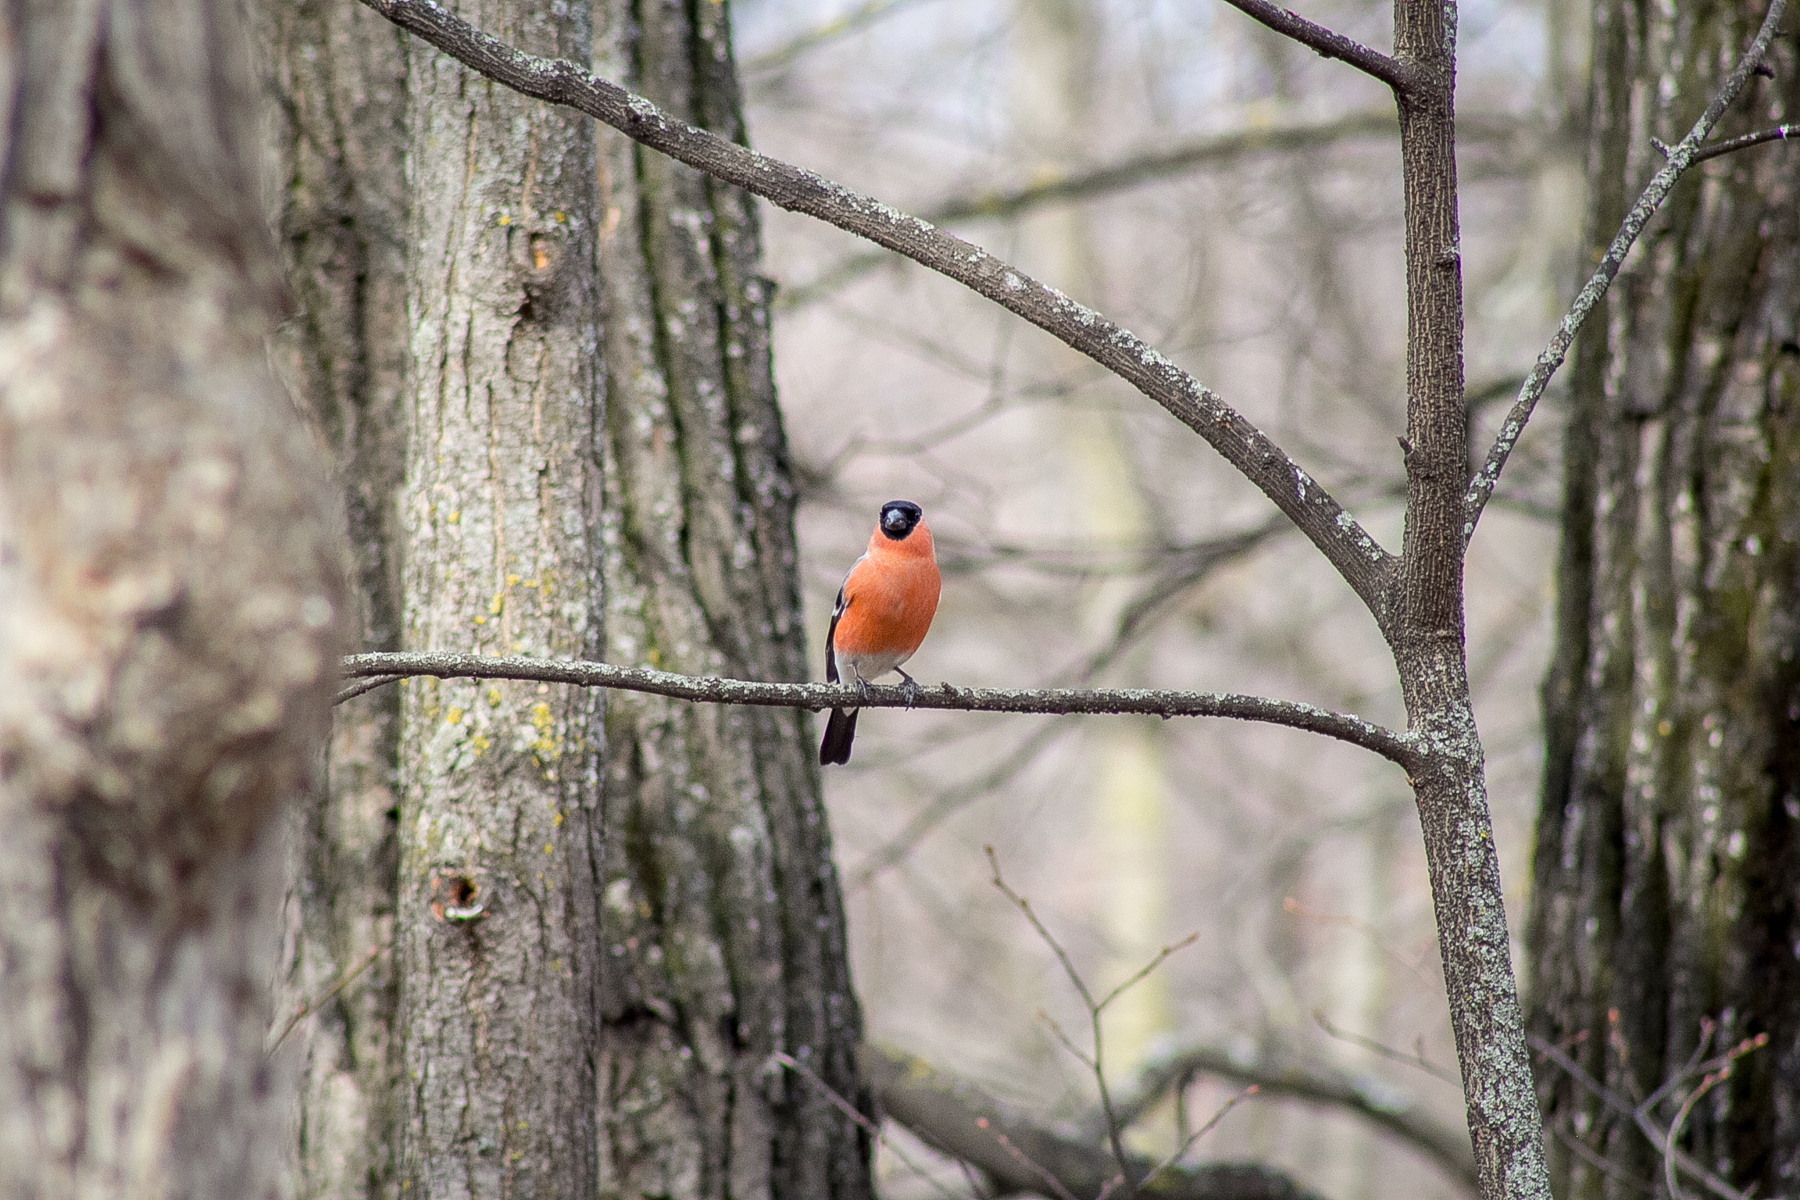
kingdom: Animalia
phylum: Chordata
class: Aves
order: Passeriformes
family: Fringillidae
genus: Pyrrhula
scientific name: Pyrrhula pyrrhula
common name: Eurasian bullfinch
